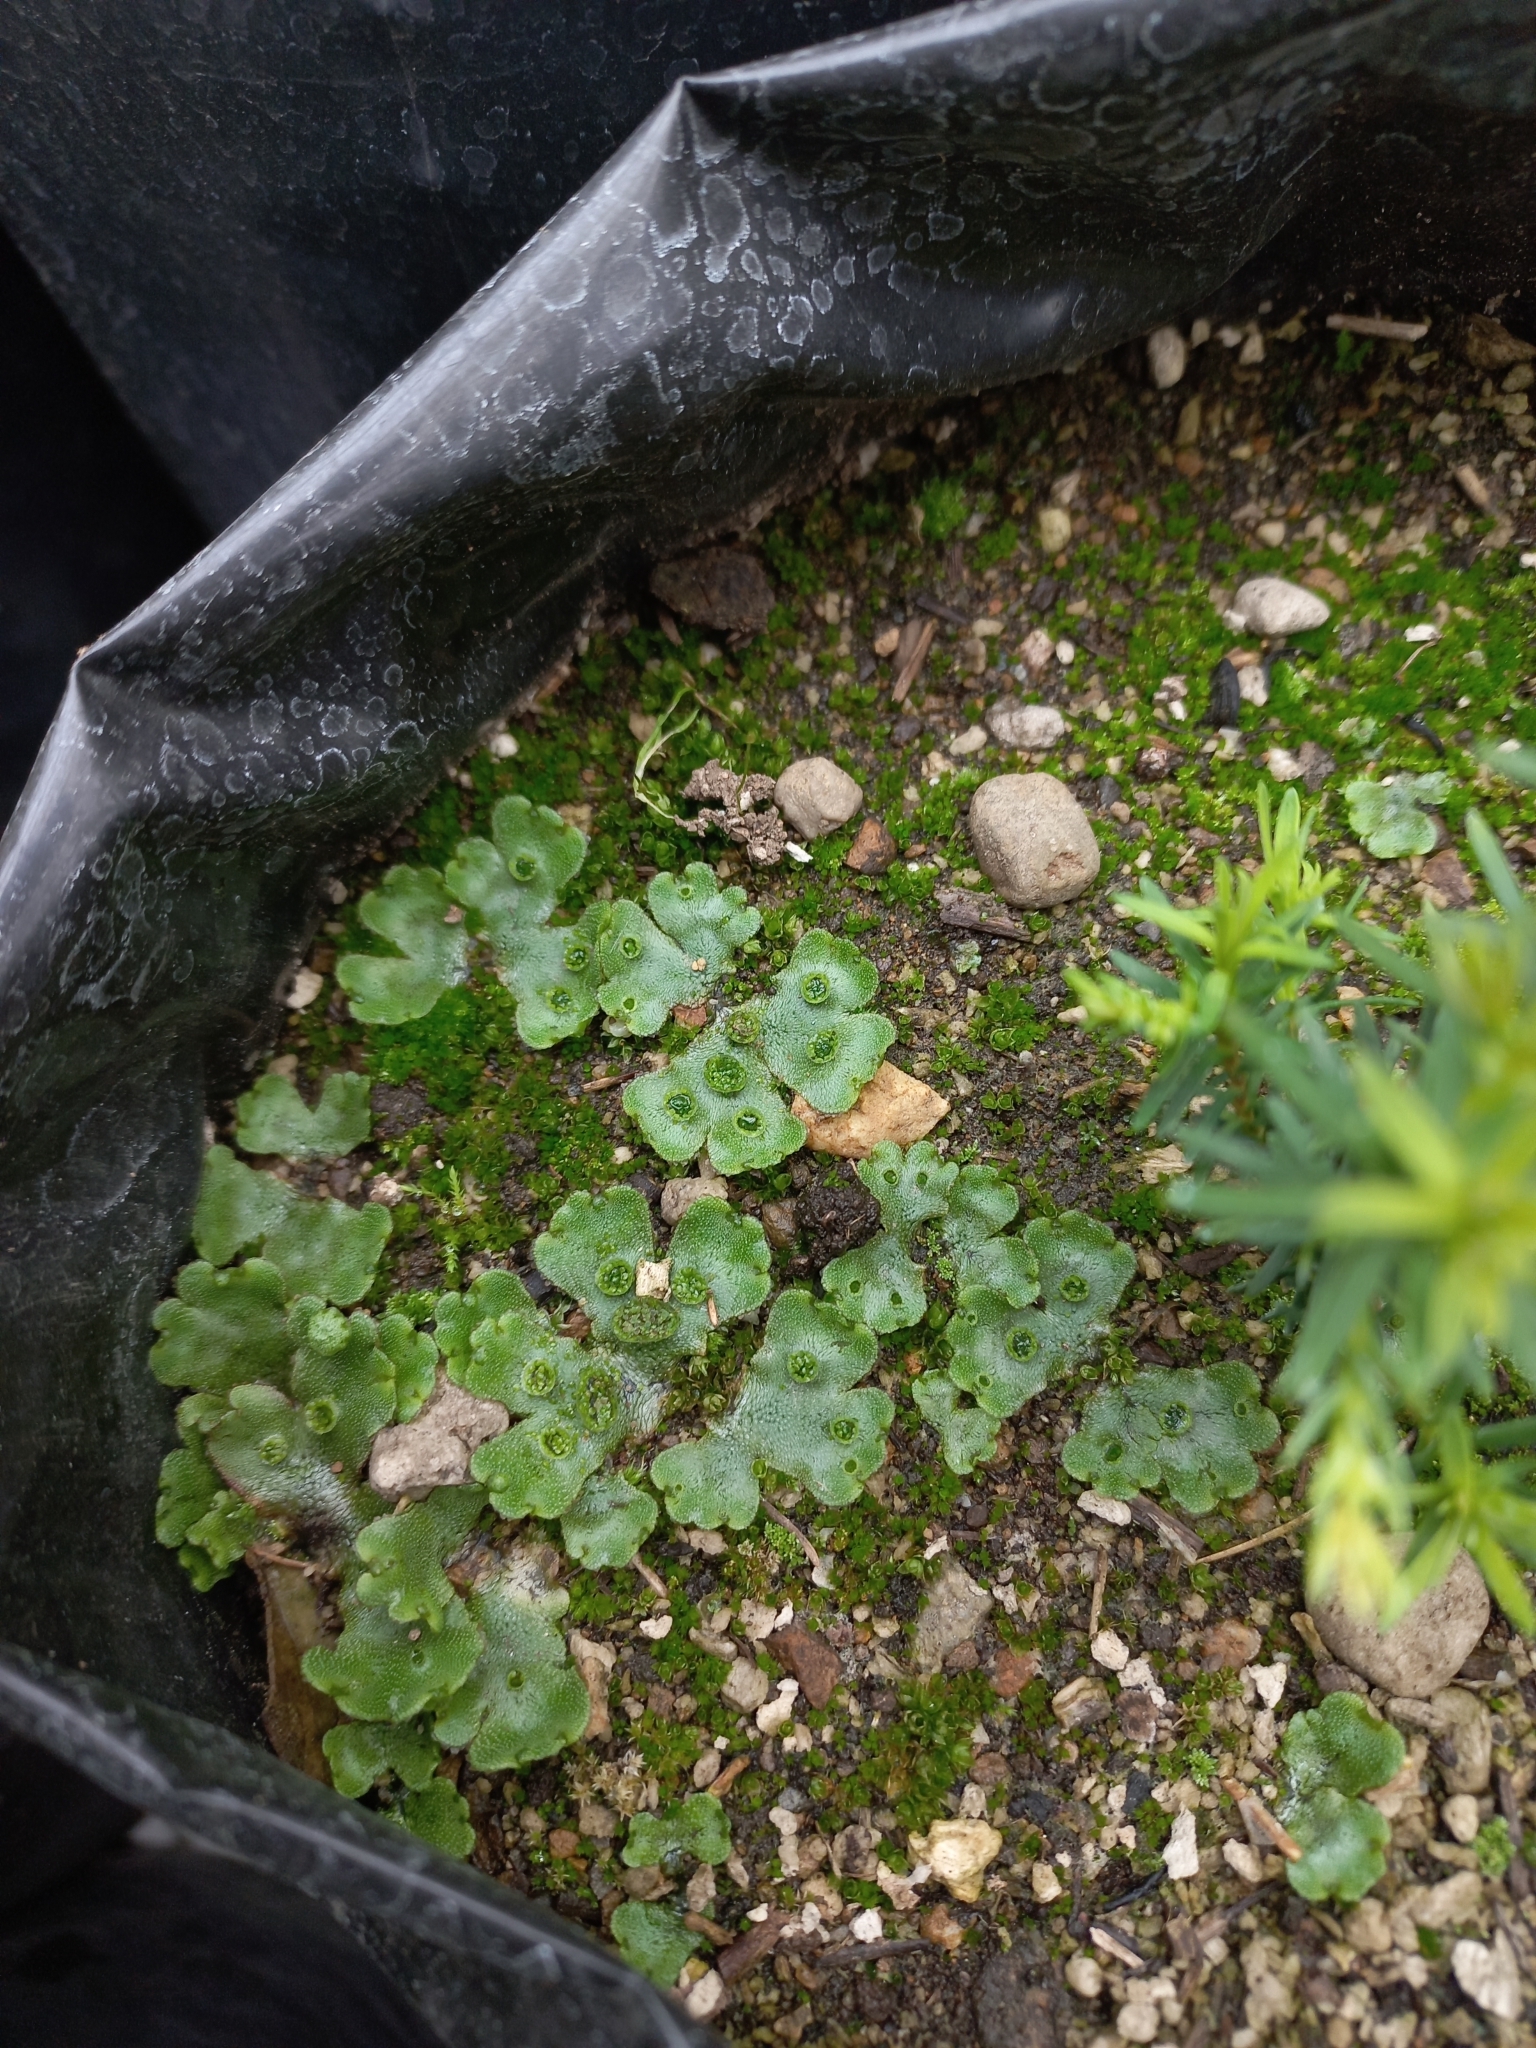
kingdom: Plantae
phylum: Marchantiophyta
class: Marchantiopsida
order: Marchantiales
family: Marchantiaceae
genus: Marchantia
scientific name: Marchantia polymorpha
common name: Common liverwort
